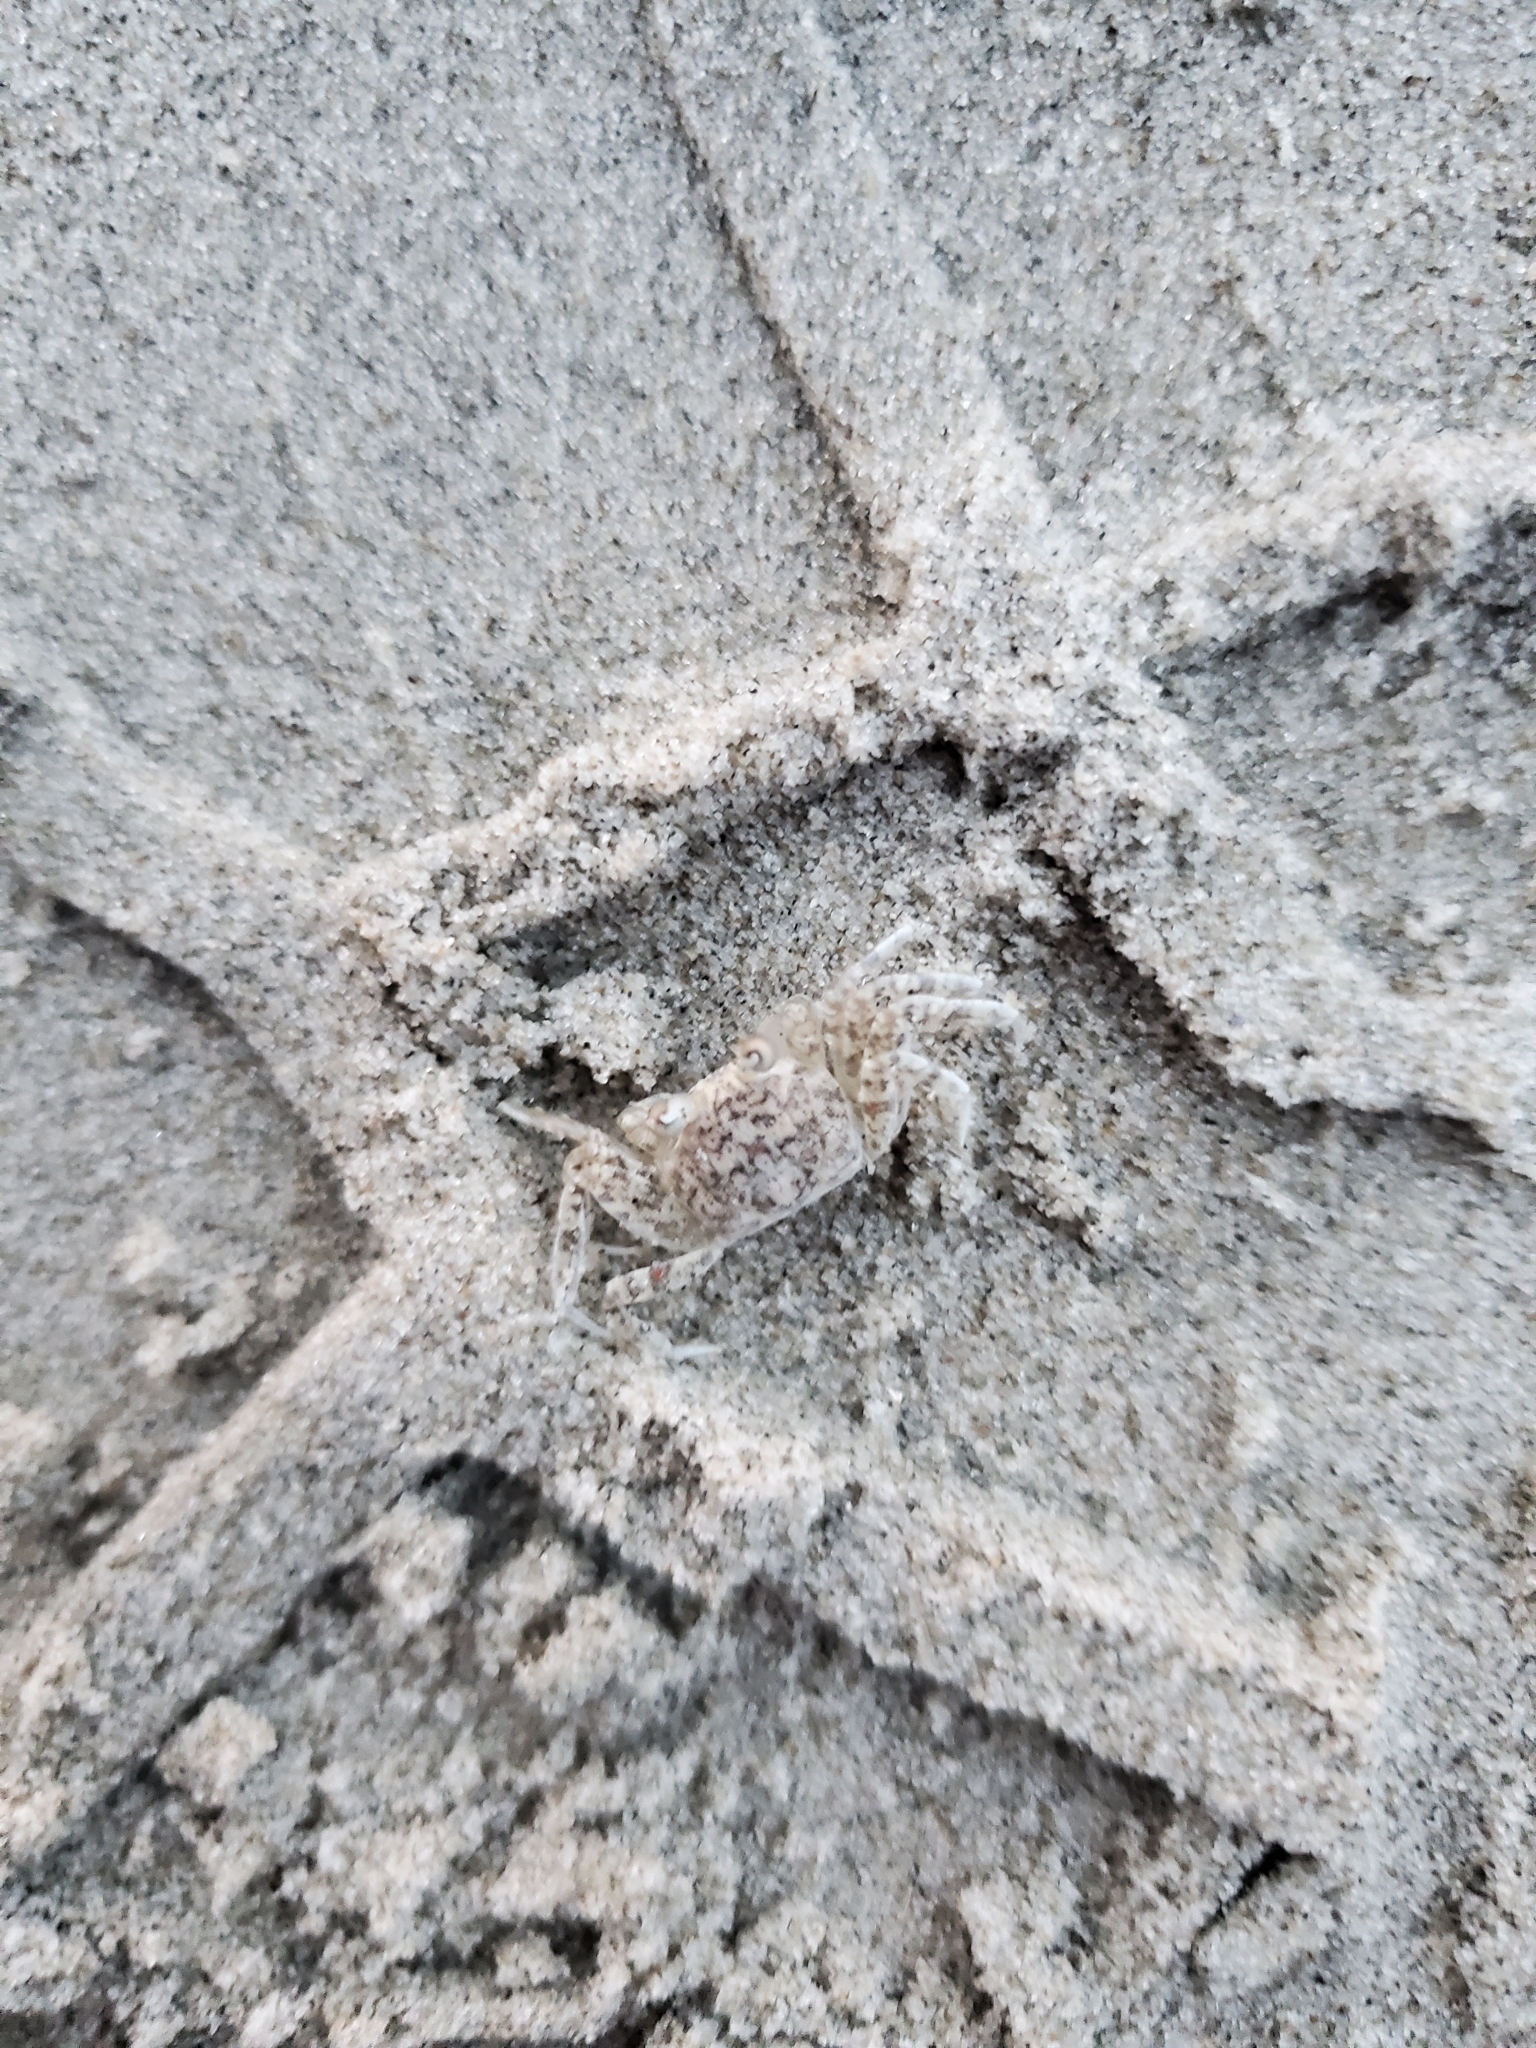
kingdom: Animalia
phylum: Arthropoda
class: Malacostraca
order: Decapoda
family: Ocypodidae
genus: Ocypode
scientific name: Ocypode quadrata
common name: Ghost crab
